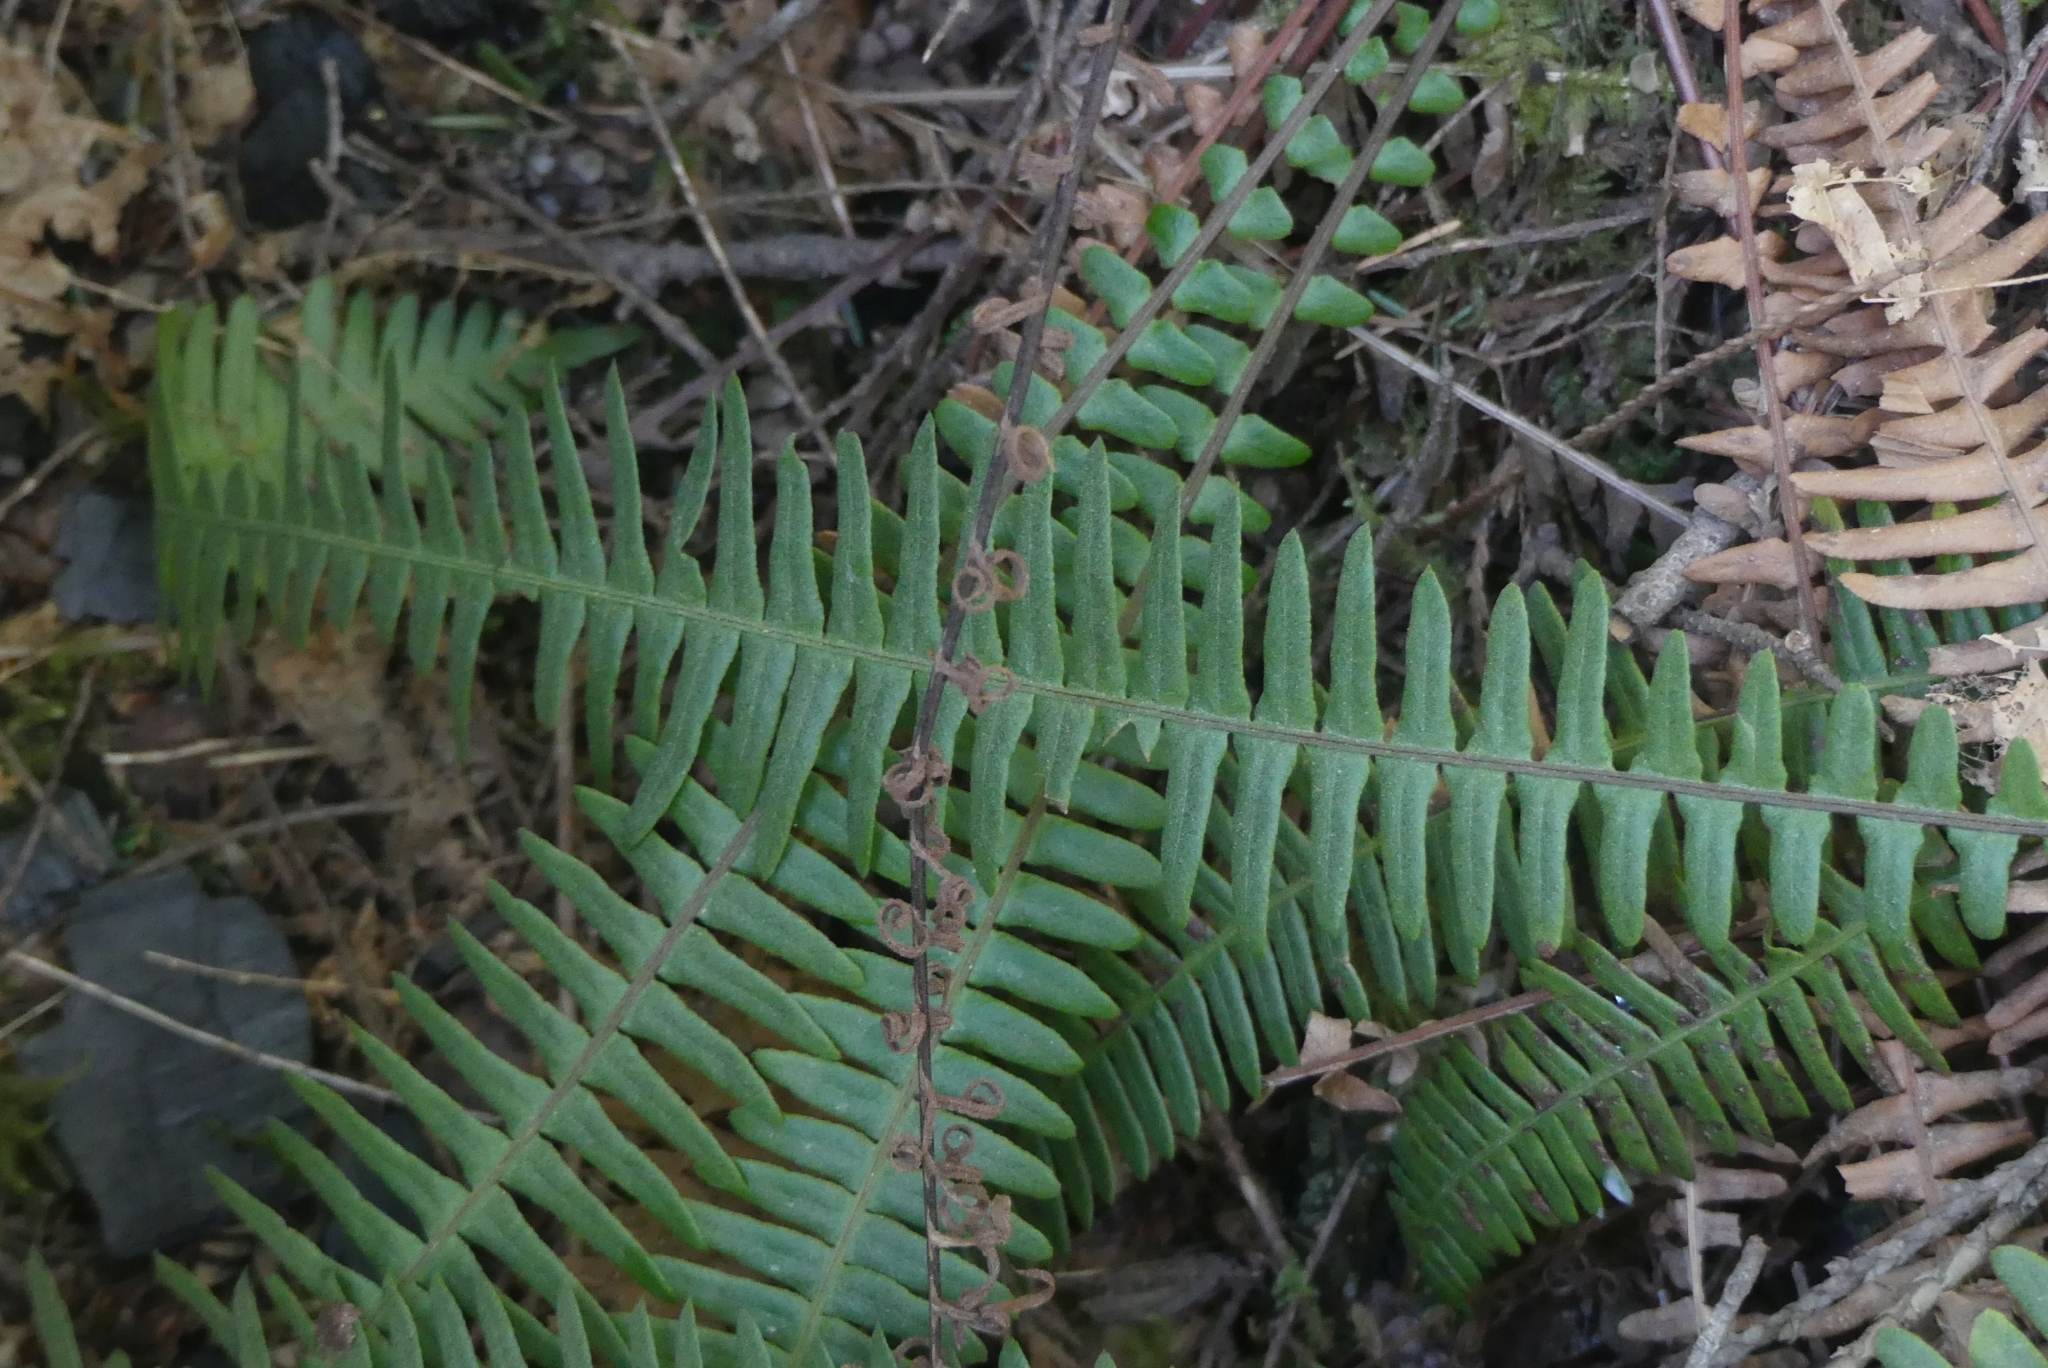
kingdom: Plantae
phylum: Tracheophyta
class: Polypodiopsida
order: Polypodiales
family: Blechnaceae
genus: Struthiopteris
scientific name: Struthiopteris spicant
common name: Deer fern
